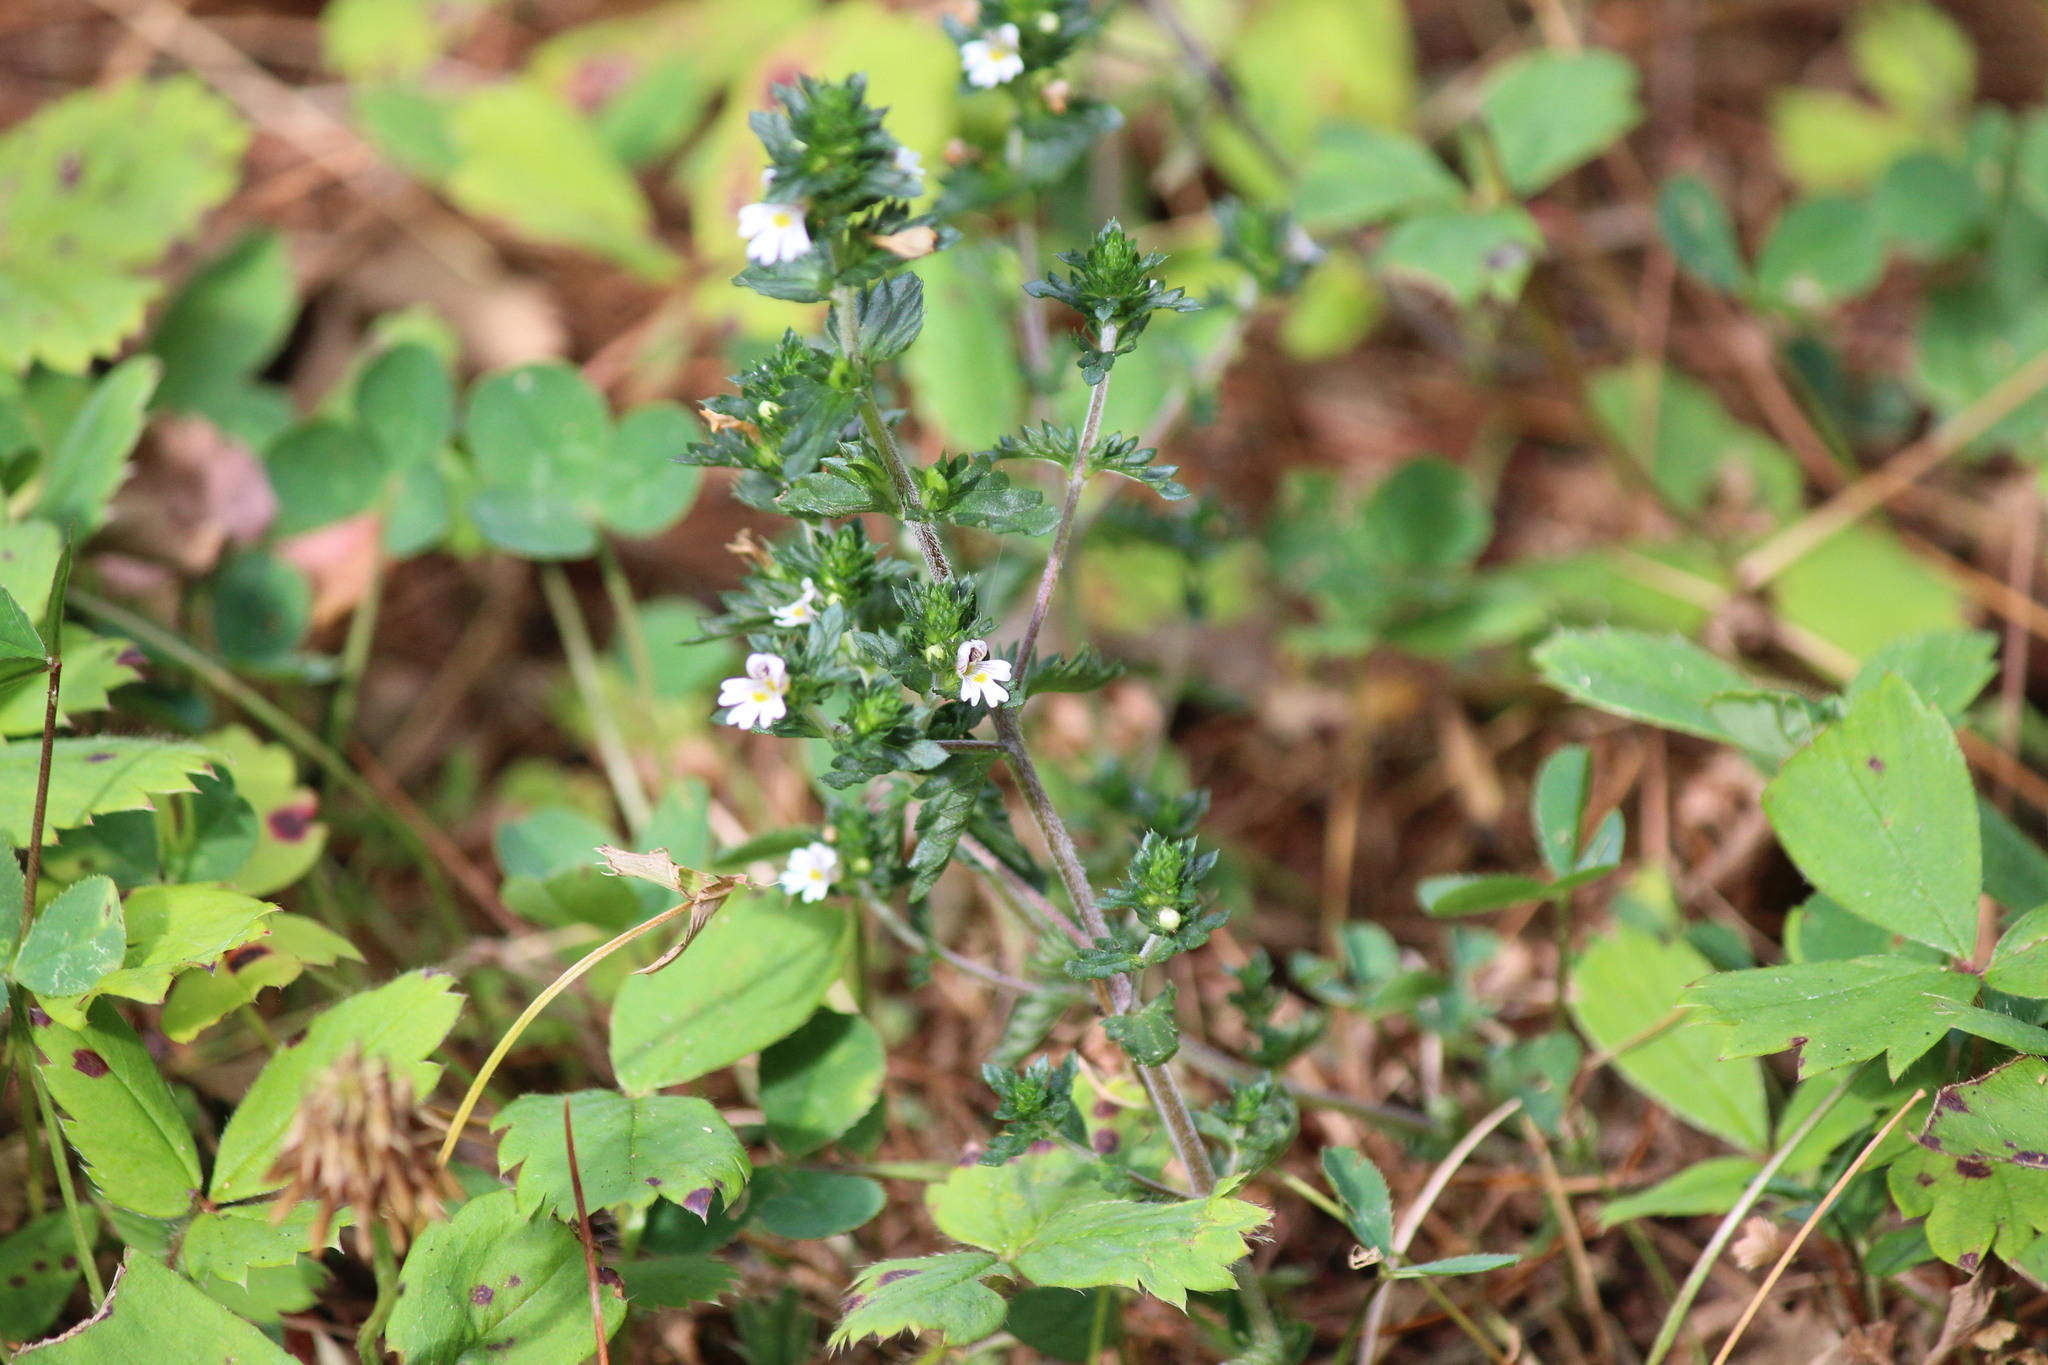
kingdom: Plantae
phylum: Tracheophyta
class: Magnoliopsida
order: Lamiales
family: Orobanchaceae
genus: Euphrasia
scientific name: Euphrasia nemorosa
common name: Common eyebright
